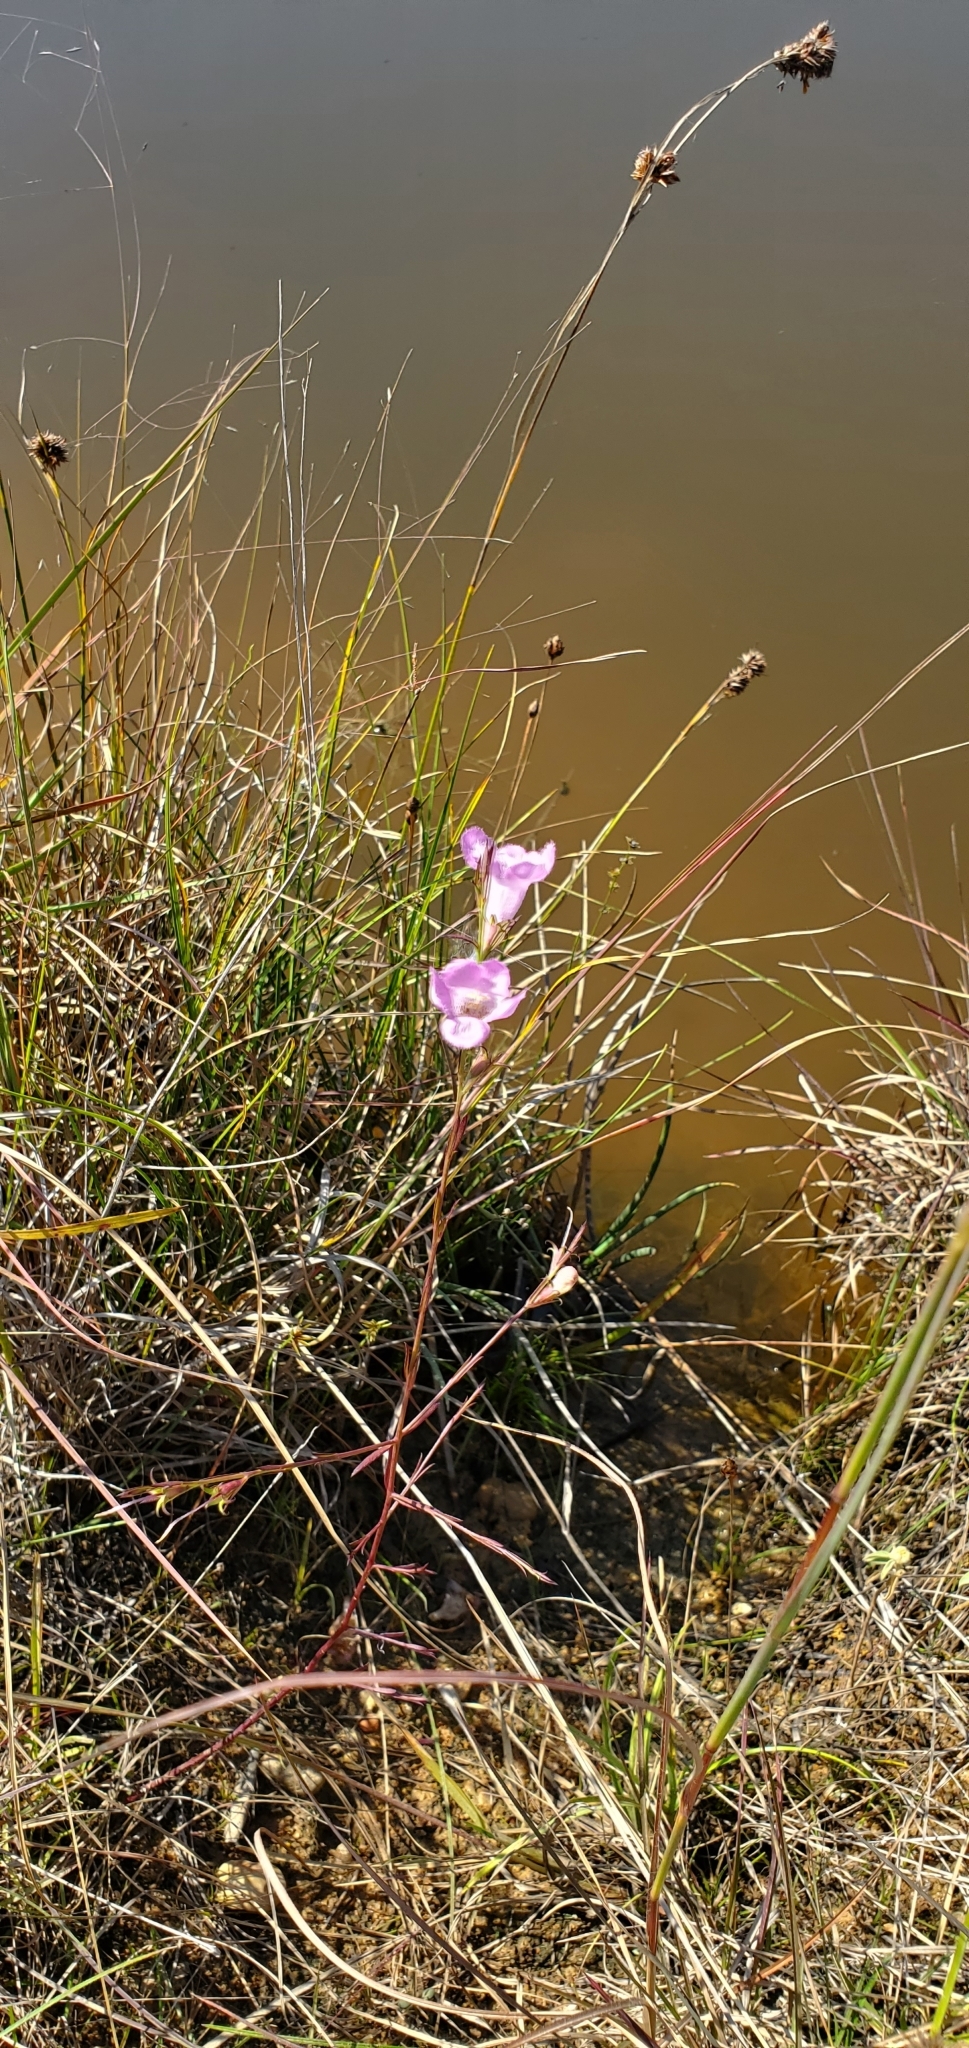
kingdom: Plantae
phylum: Tracheophyta
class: Magnoliopsida
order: Lamiales
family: Orobanchaceae
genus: Agalinis
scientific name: Agalinis heterophylla
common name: Prairie agalinis
